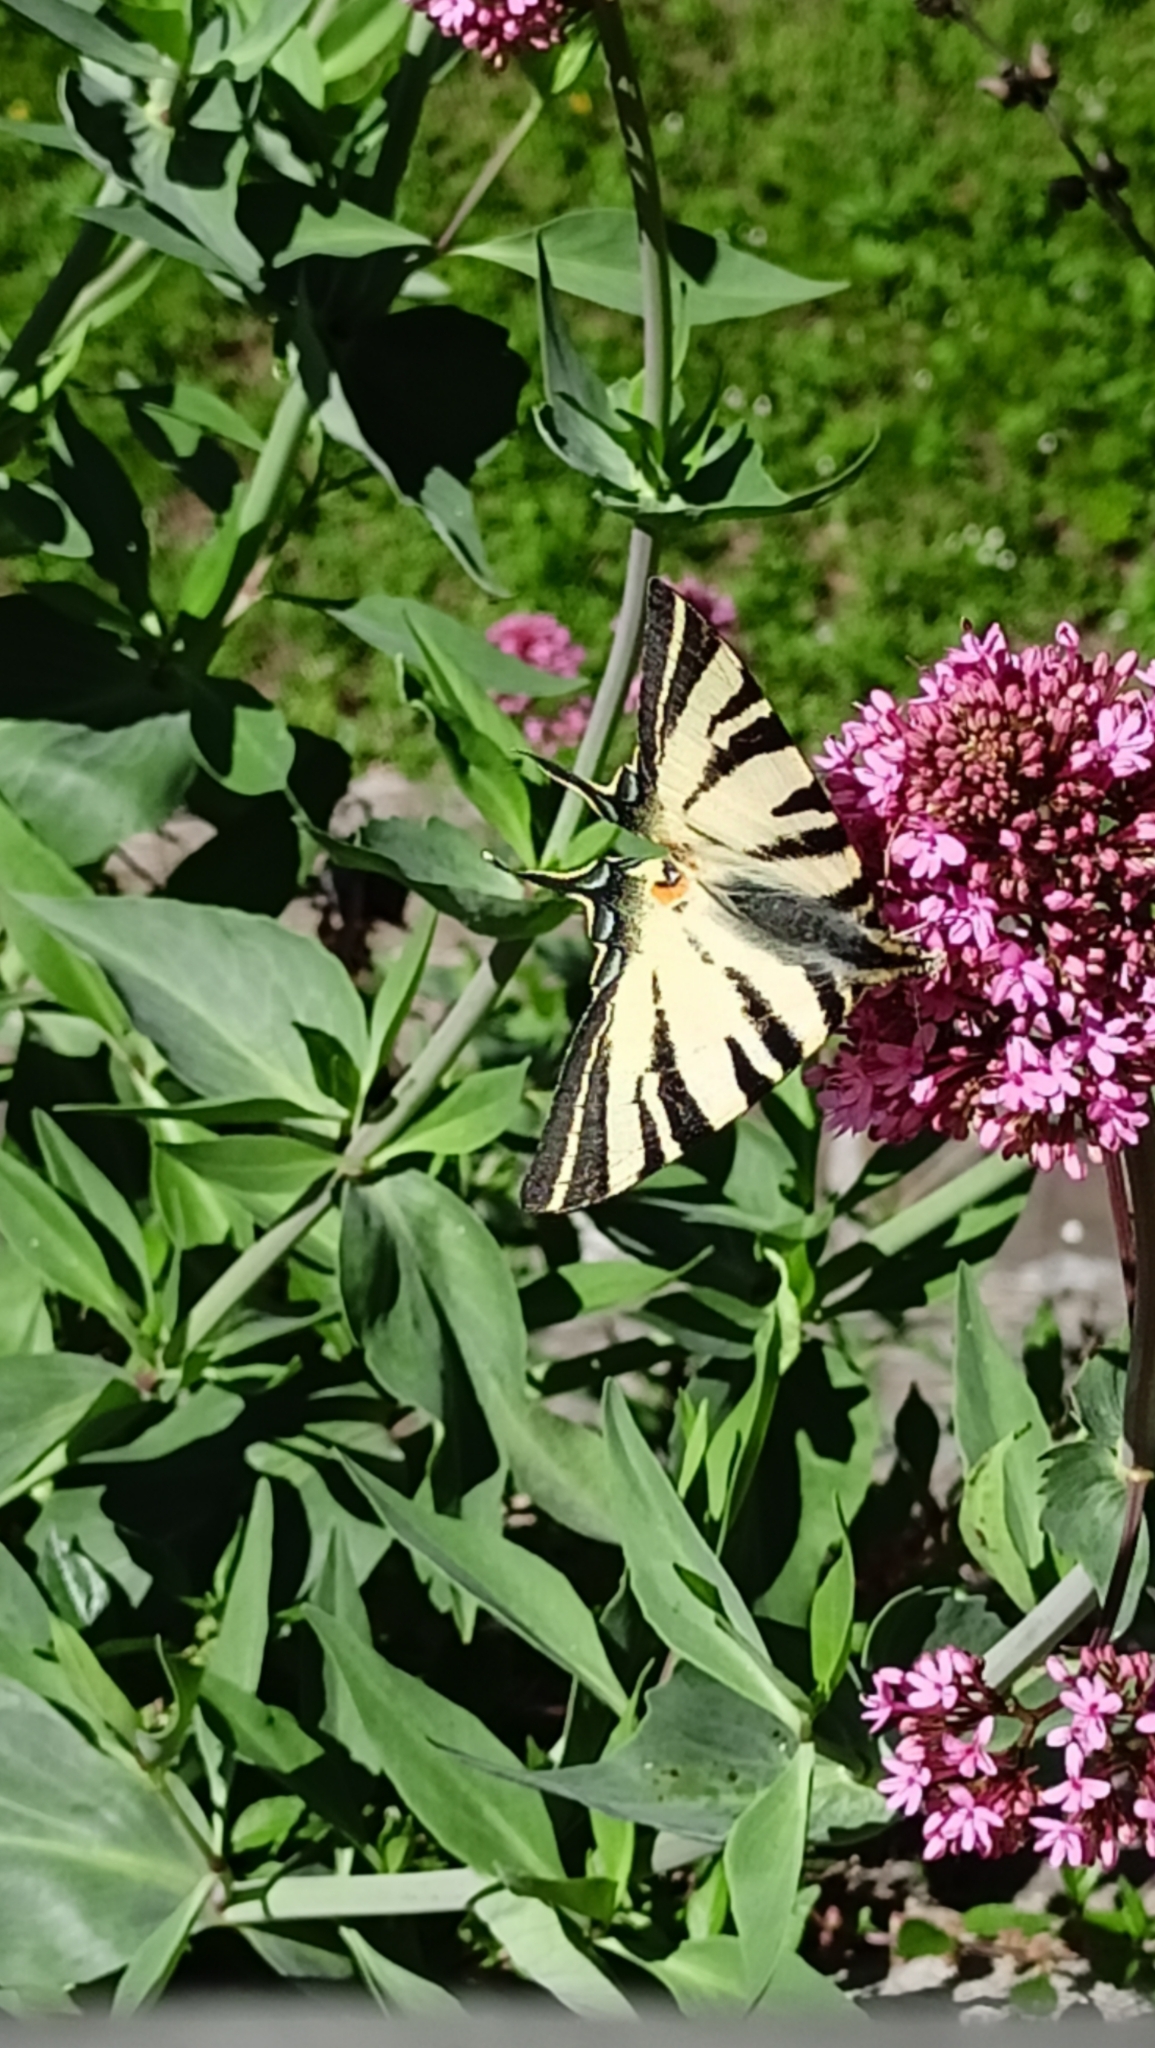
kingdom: Animalia
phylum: Arthropoda
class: Insecta
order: Lepidoptera
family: Papilionidae
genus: Iphiclides
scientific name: Iphiclides podalirius
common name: Scarce swallowtail
